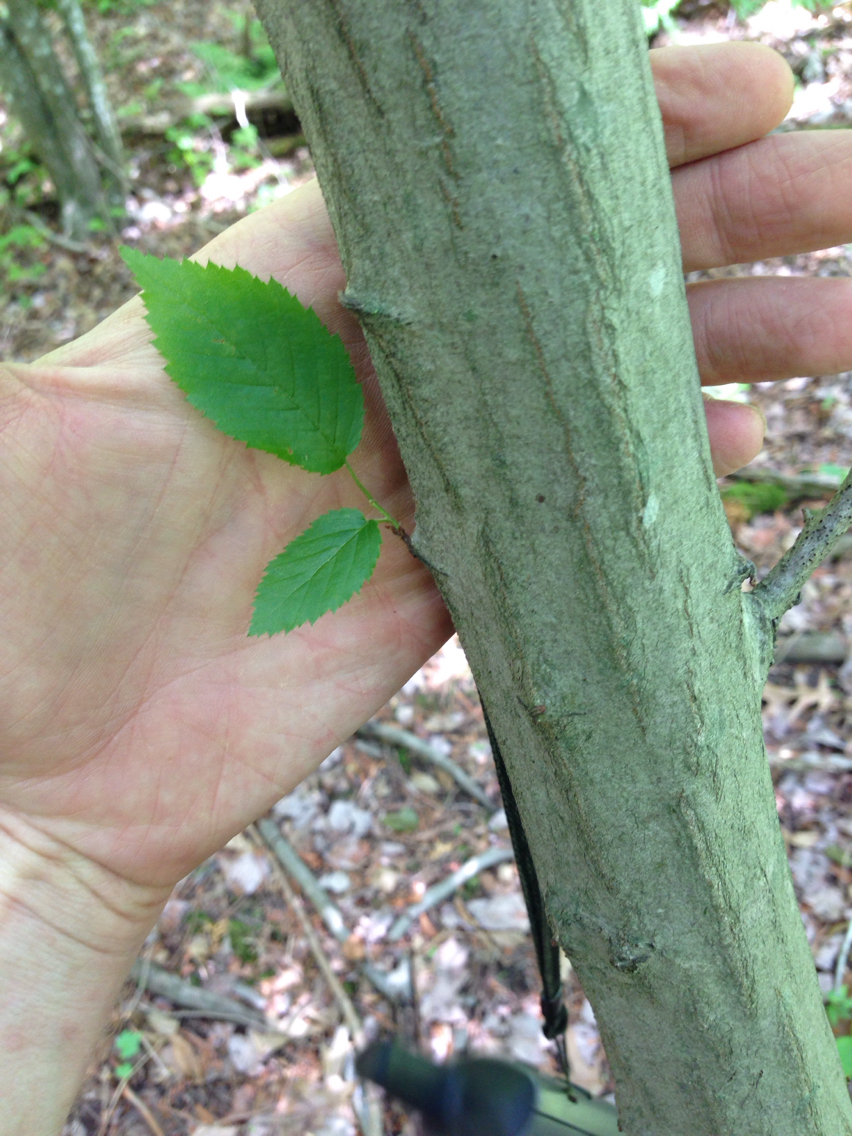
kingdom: Plantae
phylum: Tracheophyta
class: Magnoliopsida
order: Fagales
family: Betulaceae
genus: Carpinus
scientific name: Carpinus caroliniana
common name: American hornbeam
